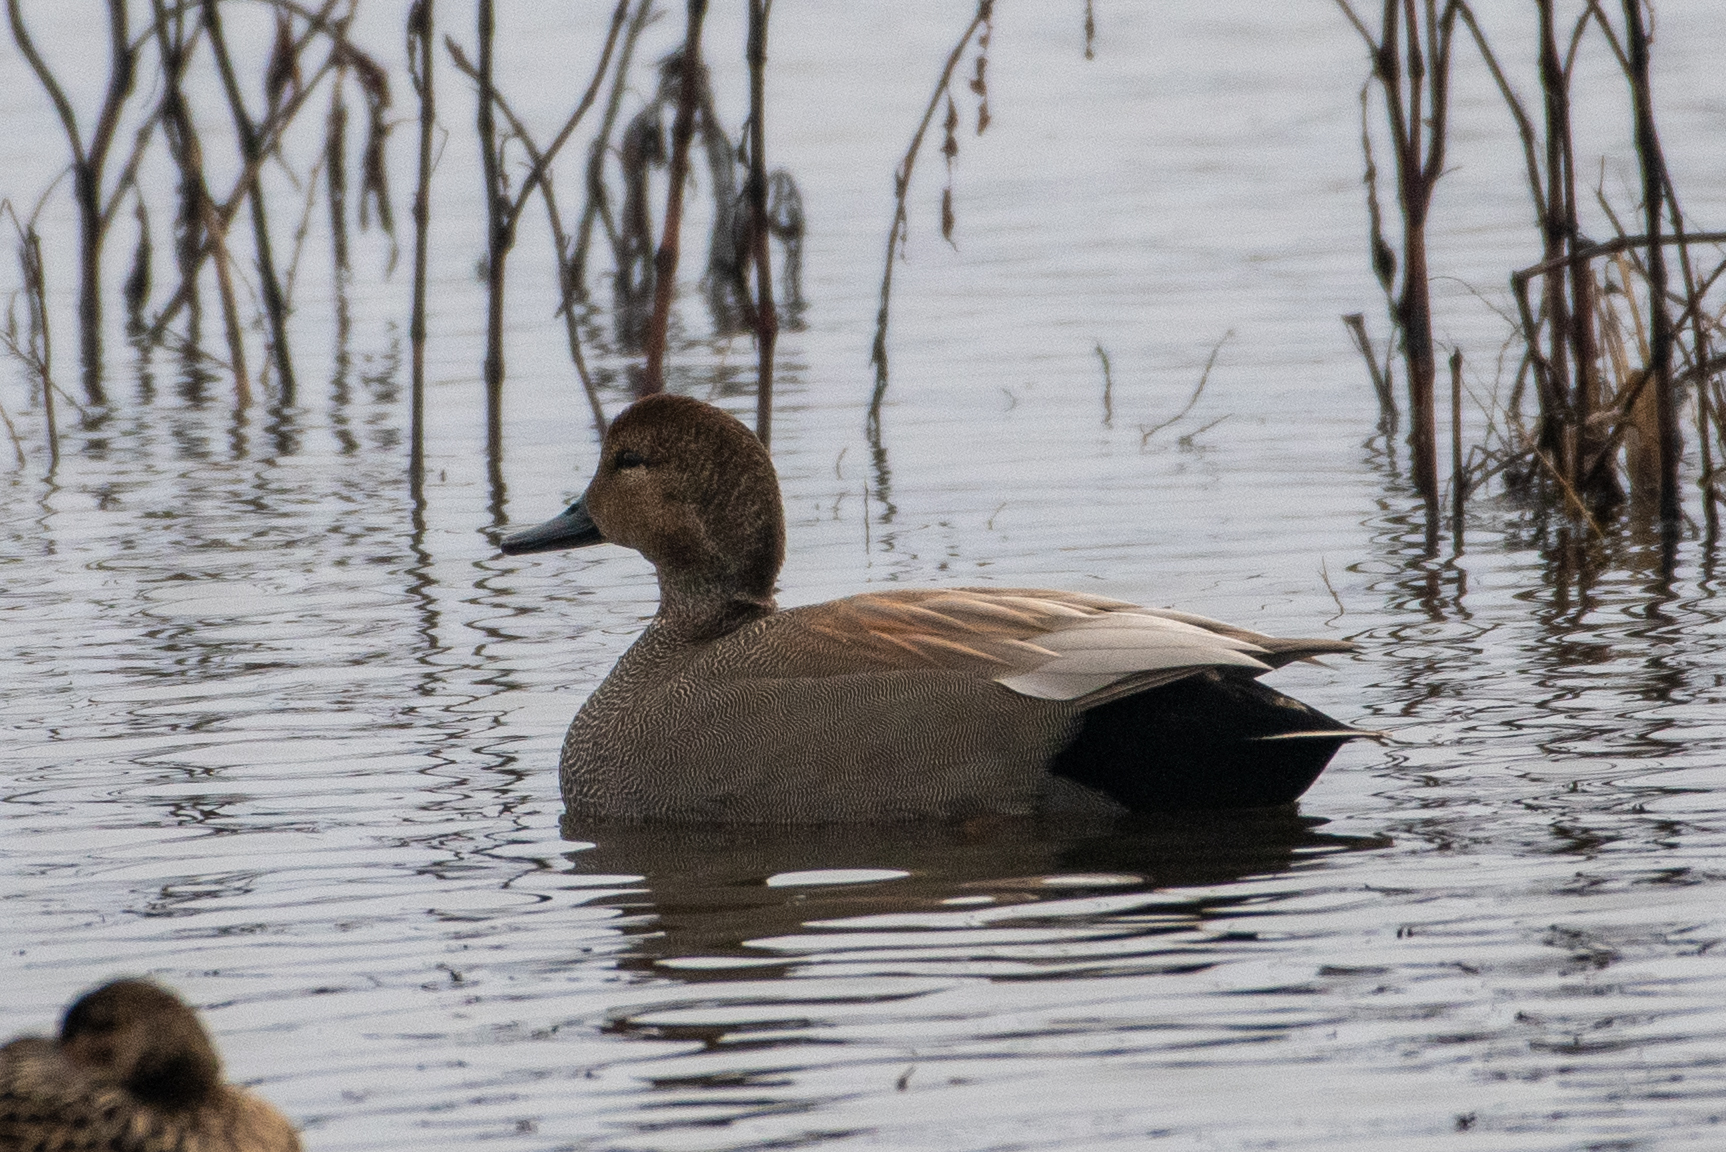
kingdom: Animalia
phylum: Chordata
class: Aves
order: Anseriformes
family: Anatidae
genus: Mareca
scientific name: Mareca strepera
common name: Gadwall
